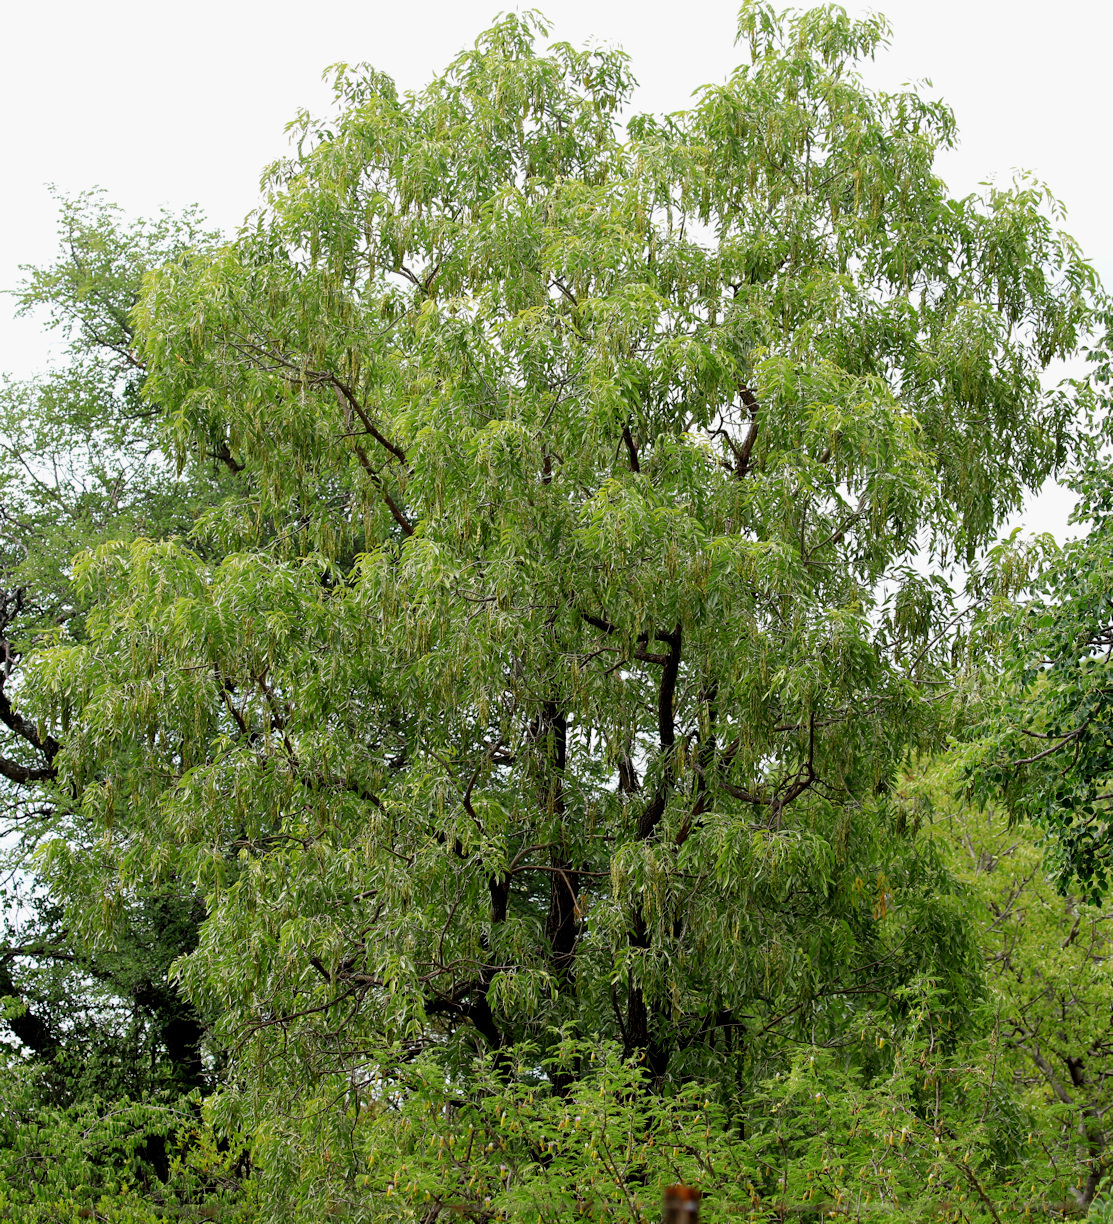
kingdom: Plantae
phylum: Tracheophyta
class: Magnoliopsida
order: Fabales
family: Fabaceae
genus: Bolusanthus
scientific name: Bolusanthus speciosus
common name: Tree wisteria
